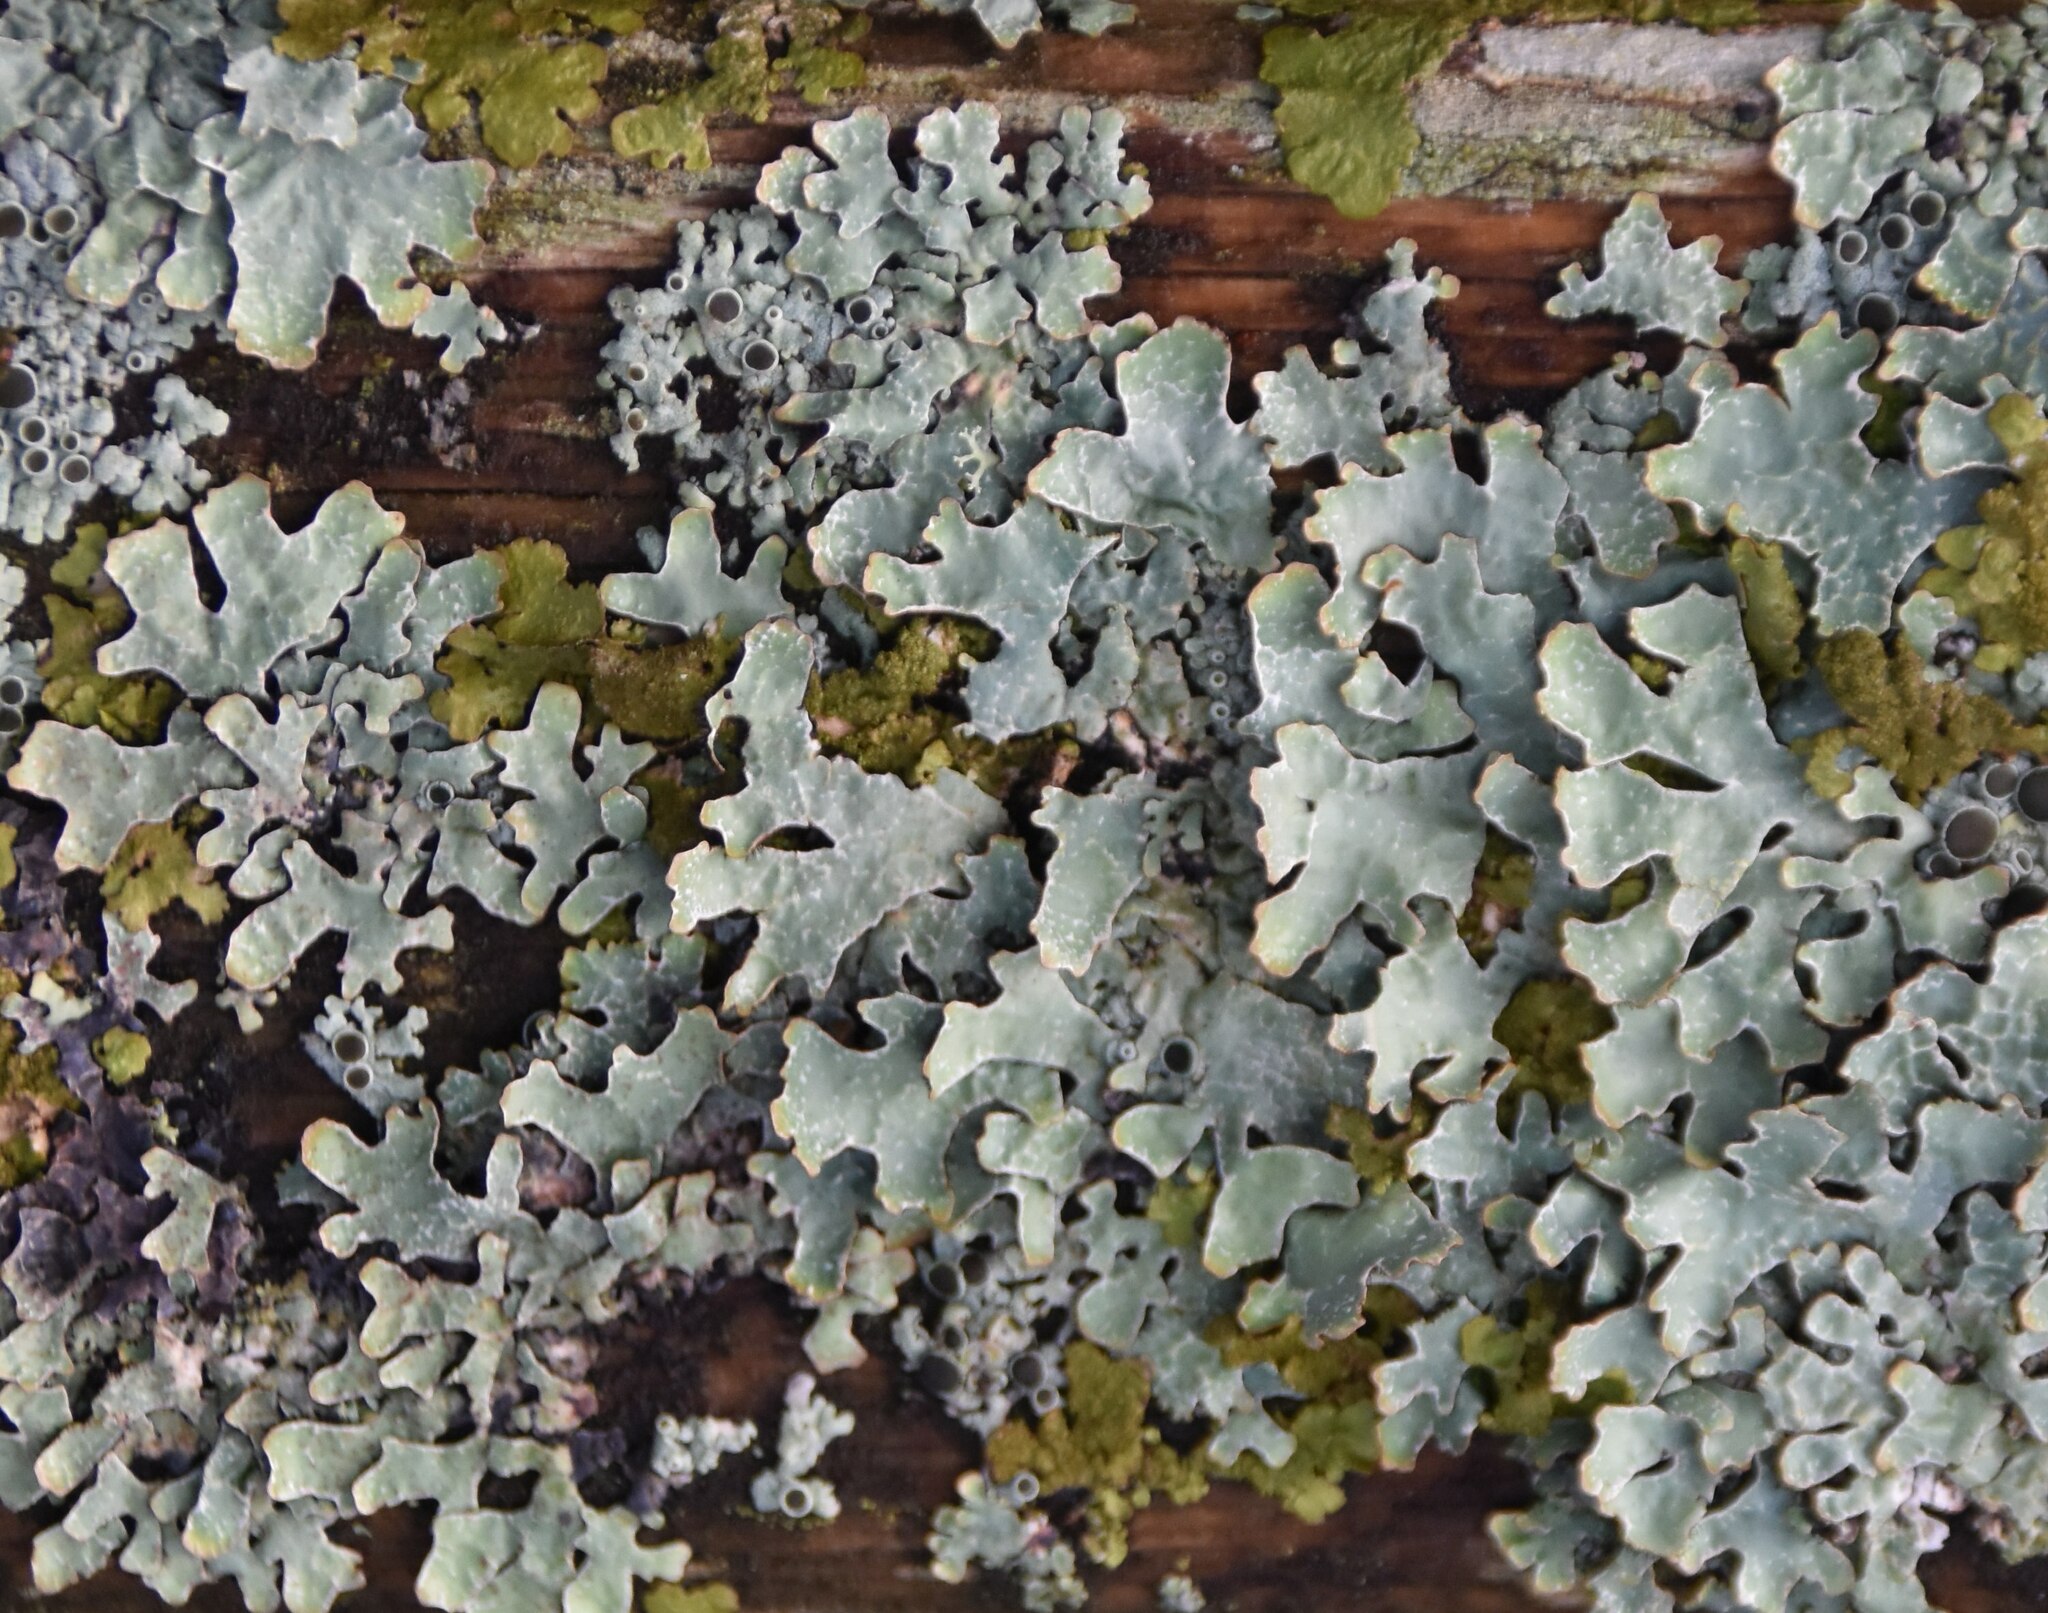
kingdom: Fungi
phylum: Ascomycota
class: Lecanoromycetes
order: Lecanorales
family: Parmeliaceae
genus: Parmelia
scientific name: Parmelia sulcata
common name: Netted shield lichen
